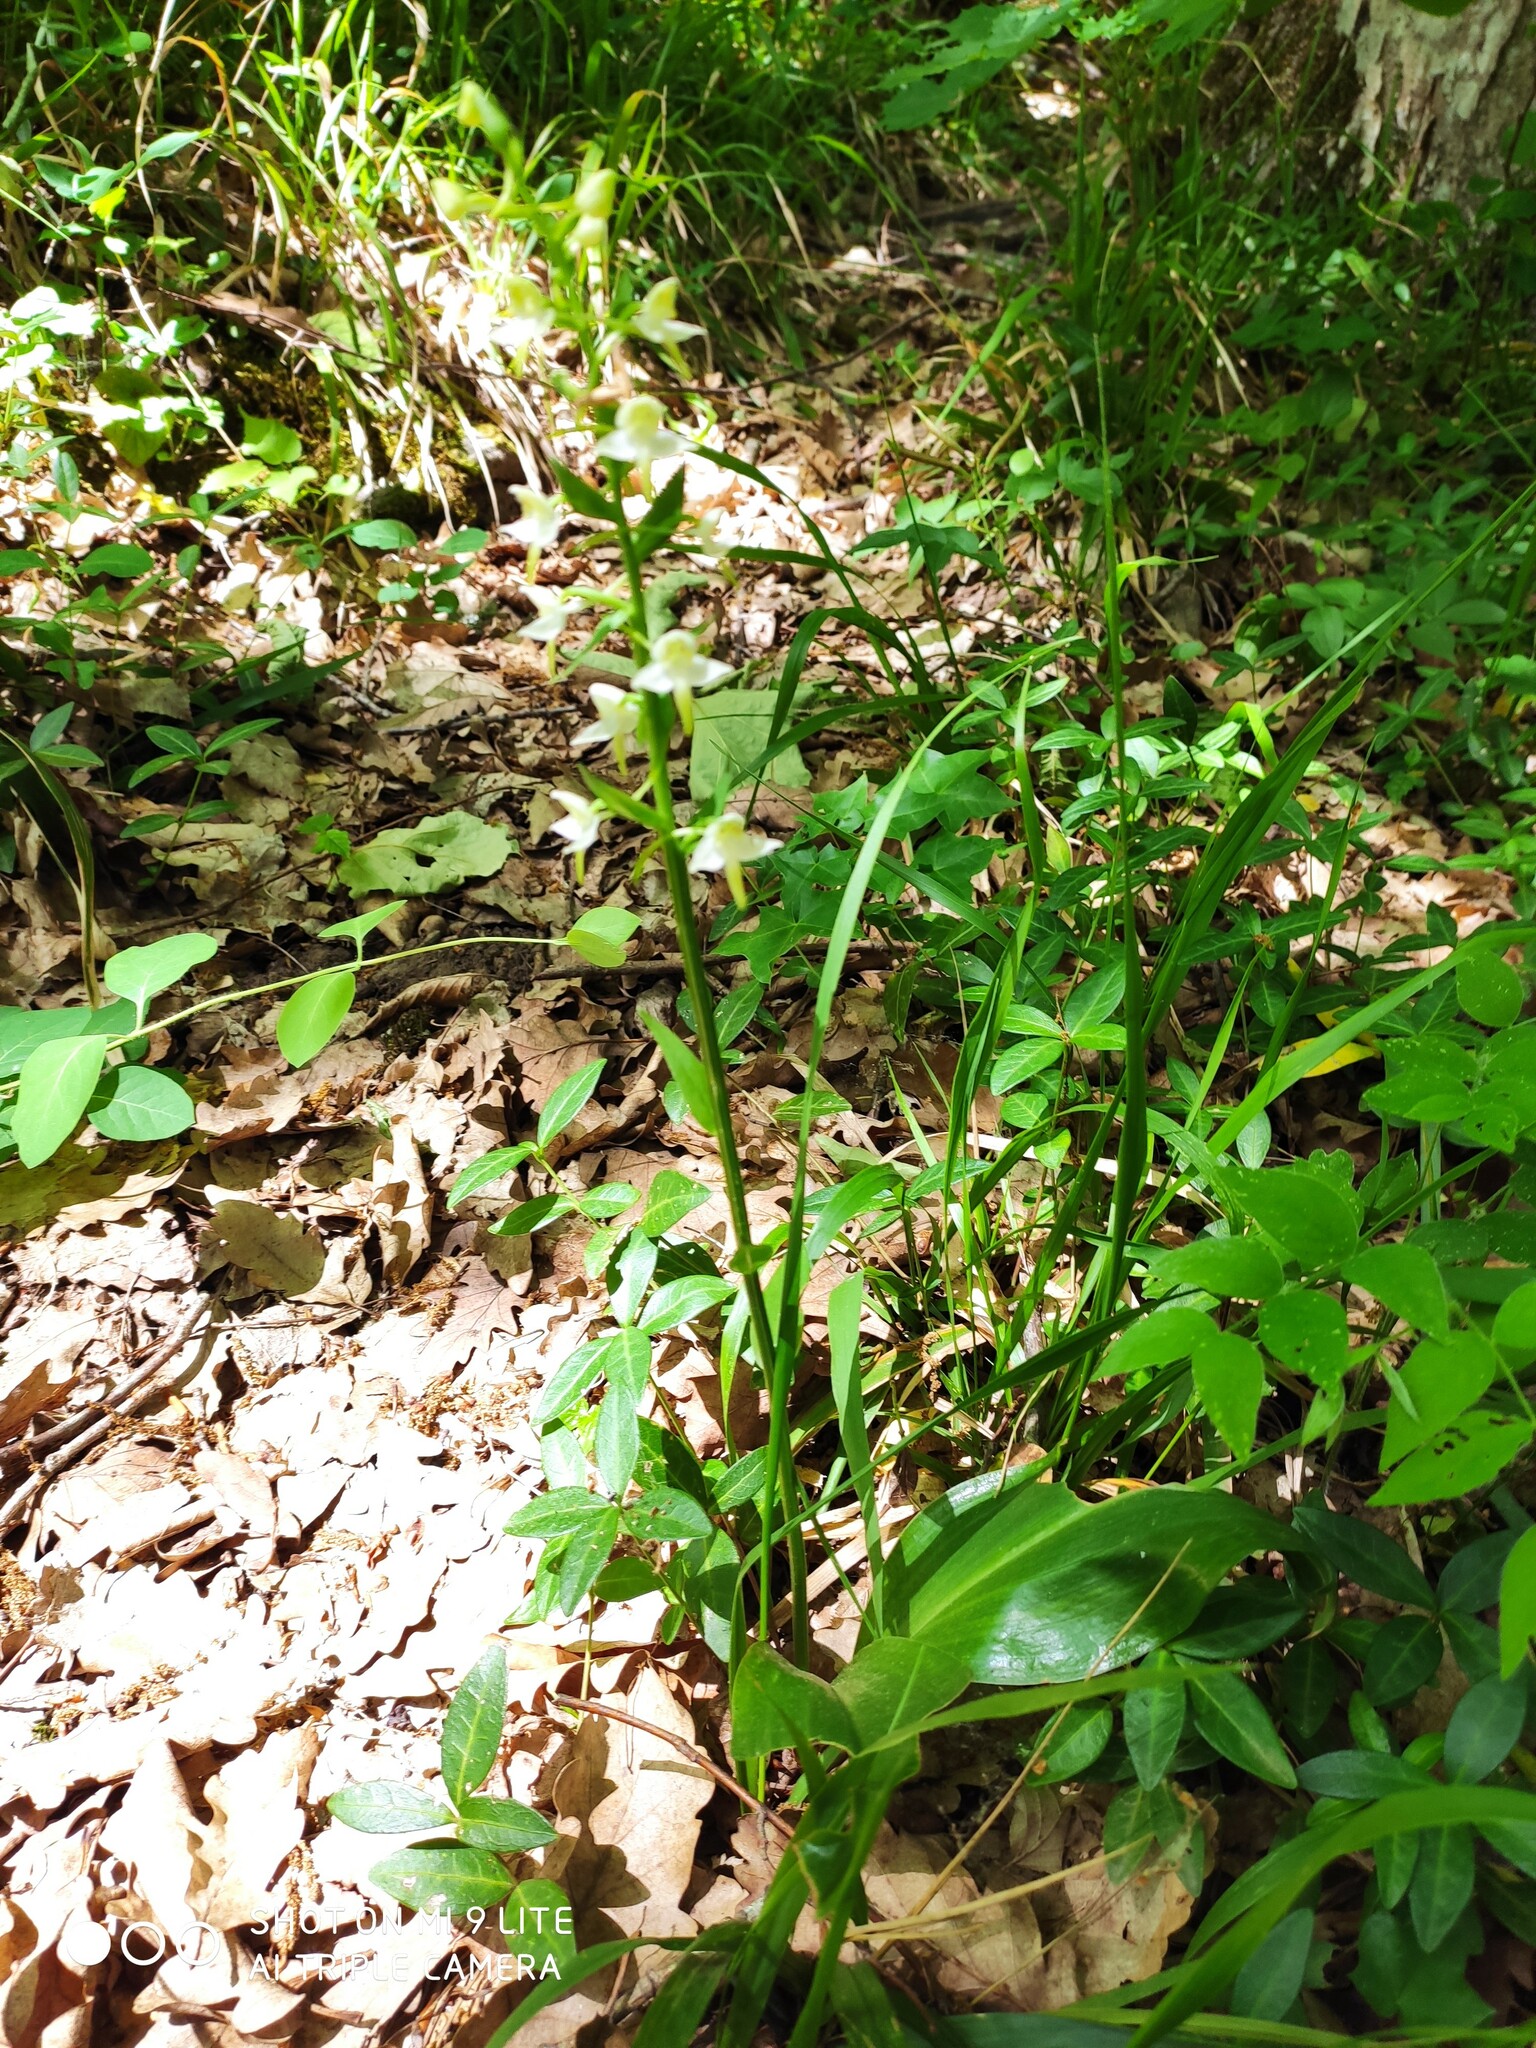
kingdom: Plantae
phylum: Tracheophyta
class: Liliopsida
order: Asparagales
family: Orchidaceae
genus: Platanthera
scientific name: Platanthera chlorantha
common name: Greater butterfly-orchid
